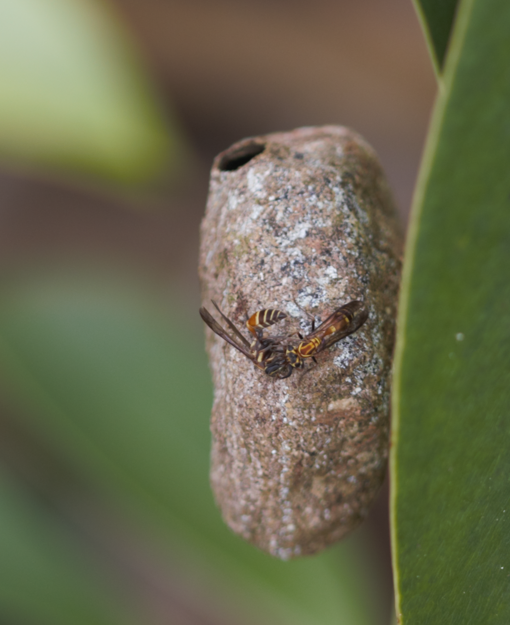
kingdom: Animalia
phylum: Arthropoda
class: Insecta
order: Hymenoptera
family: Eumenidae
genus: Polybia
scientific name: Polybia bistriata
